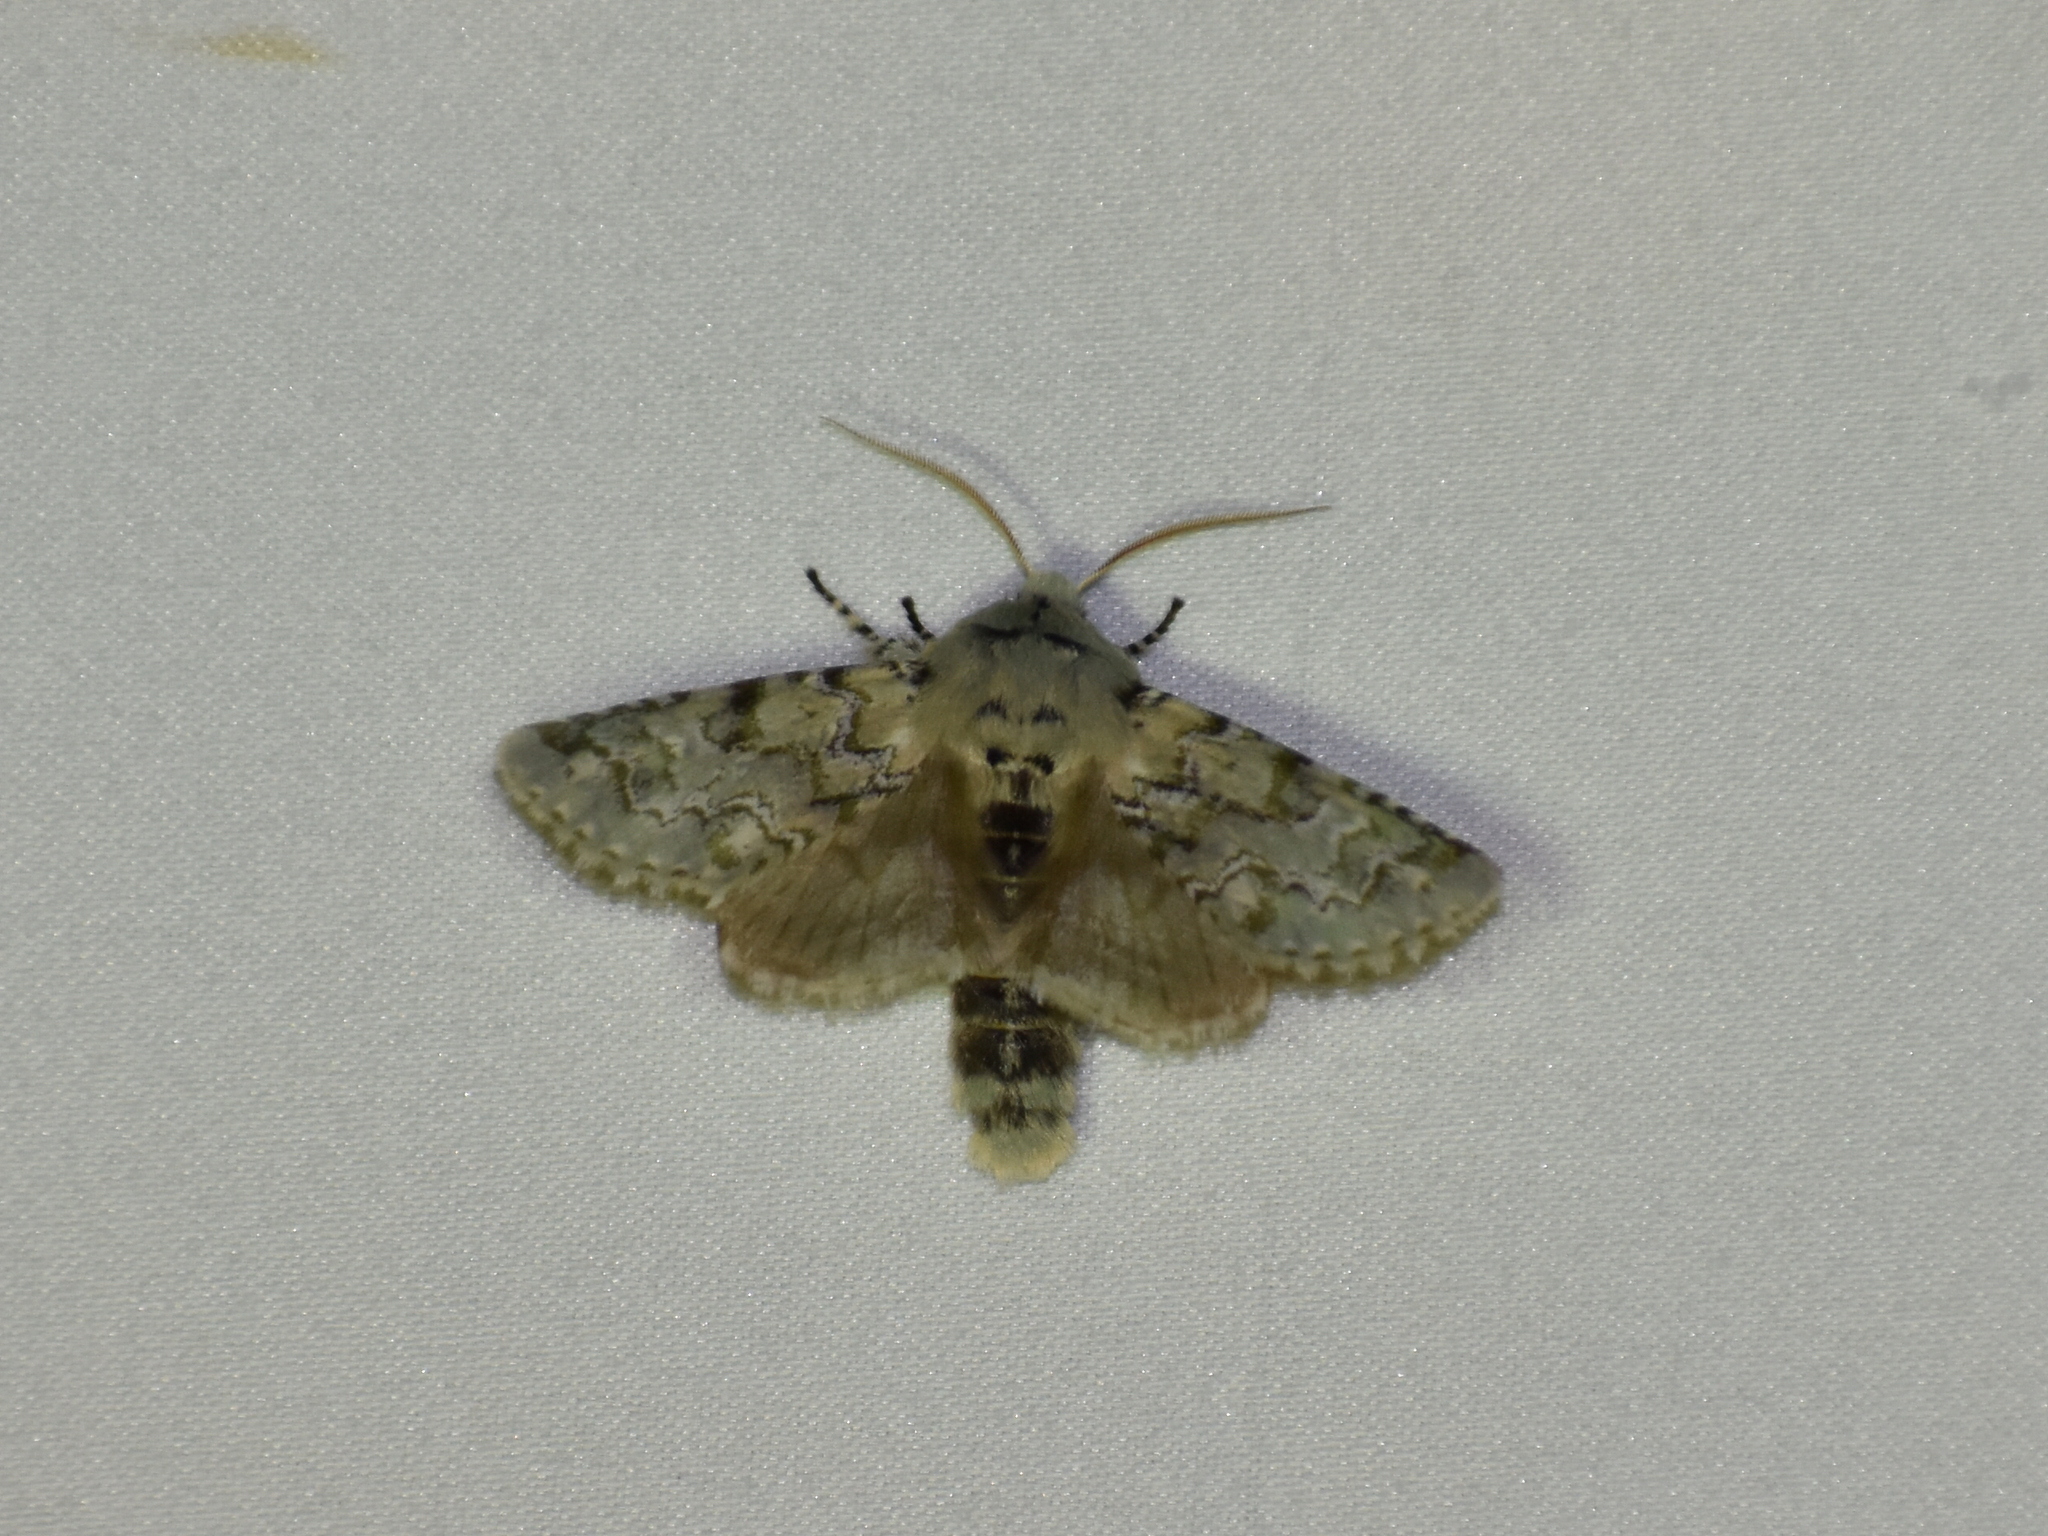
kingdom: Animalia
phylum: Arthropoda
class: Insecta
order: Lepidoptera
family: Noctuidae
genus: Feralia
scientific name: Feralia jocosa
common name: Joker
